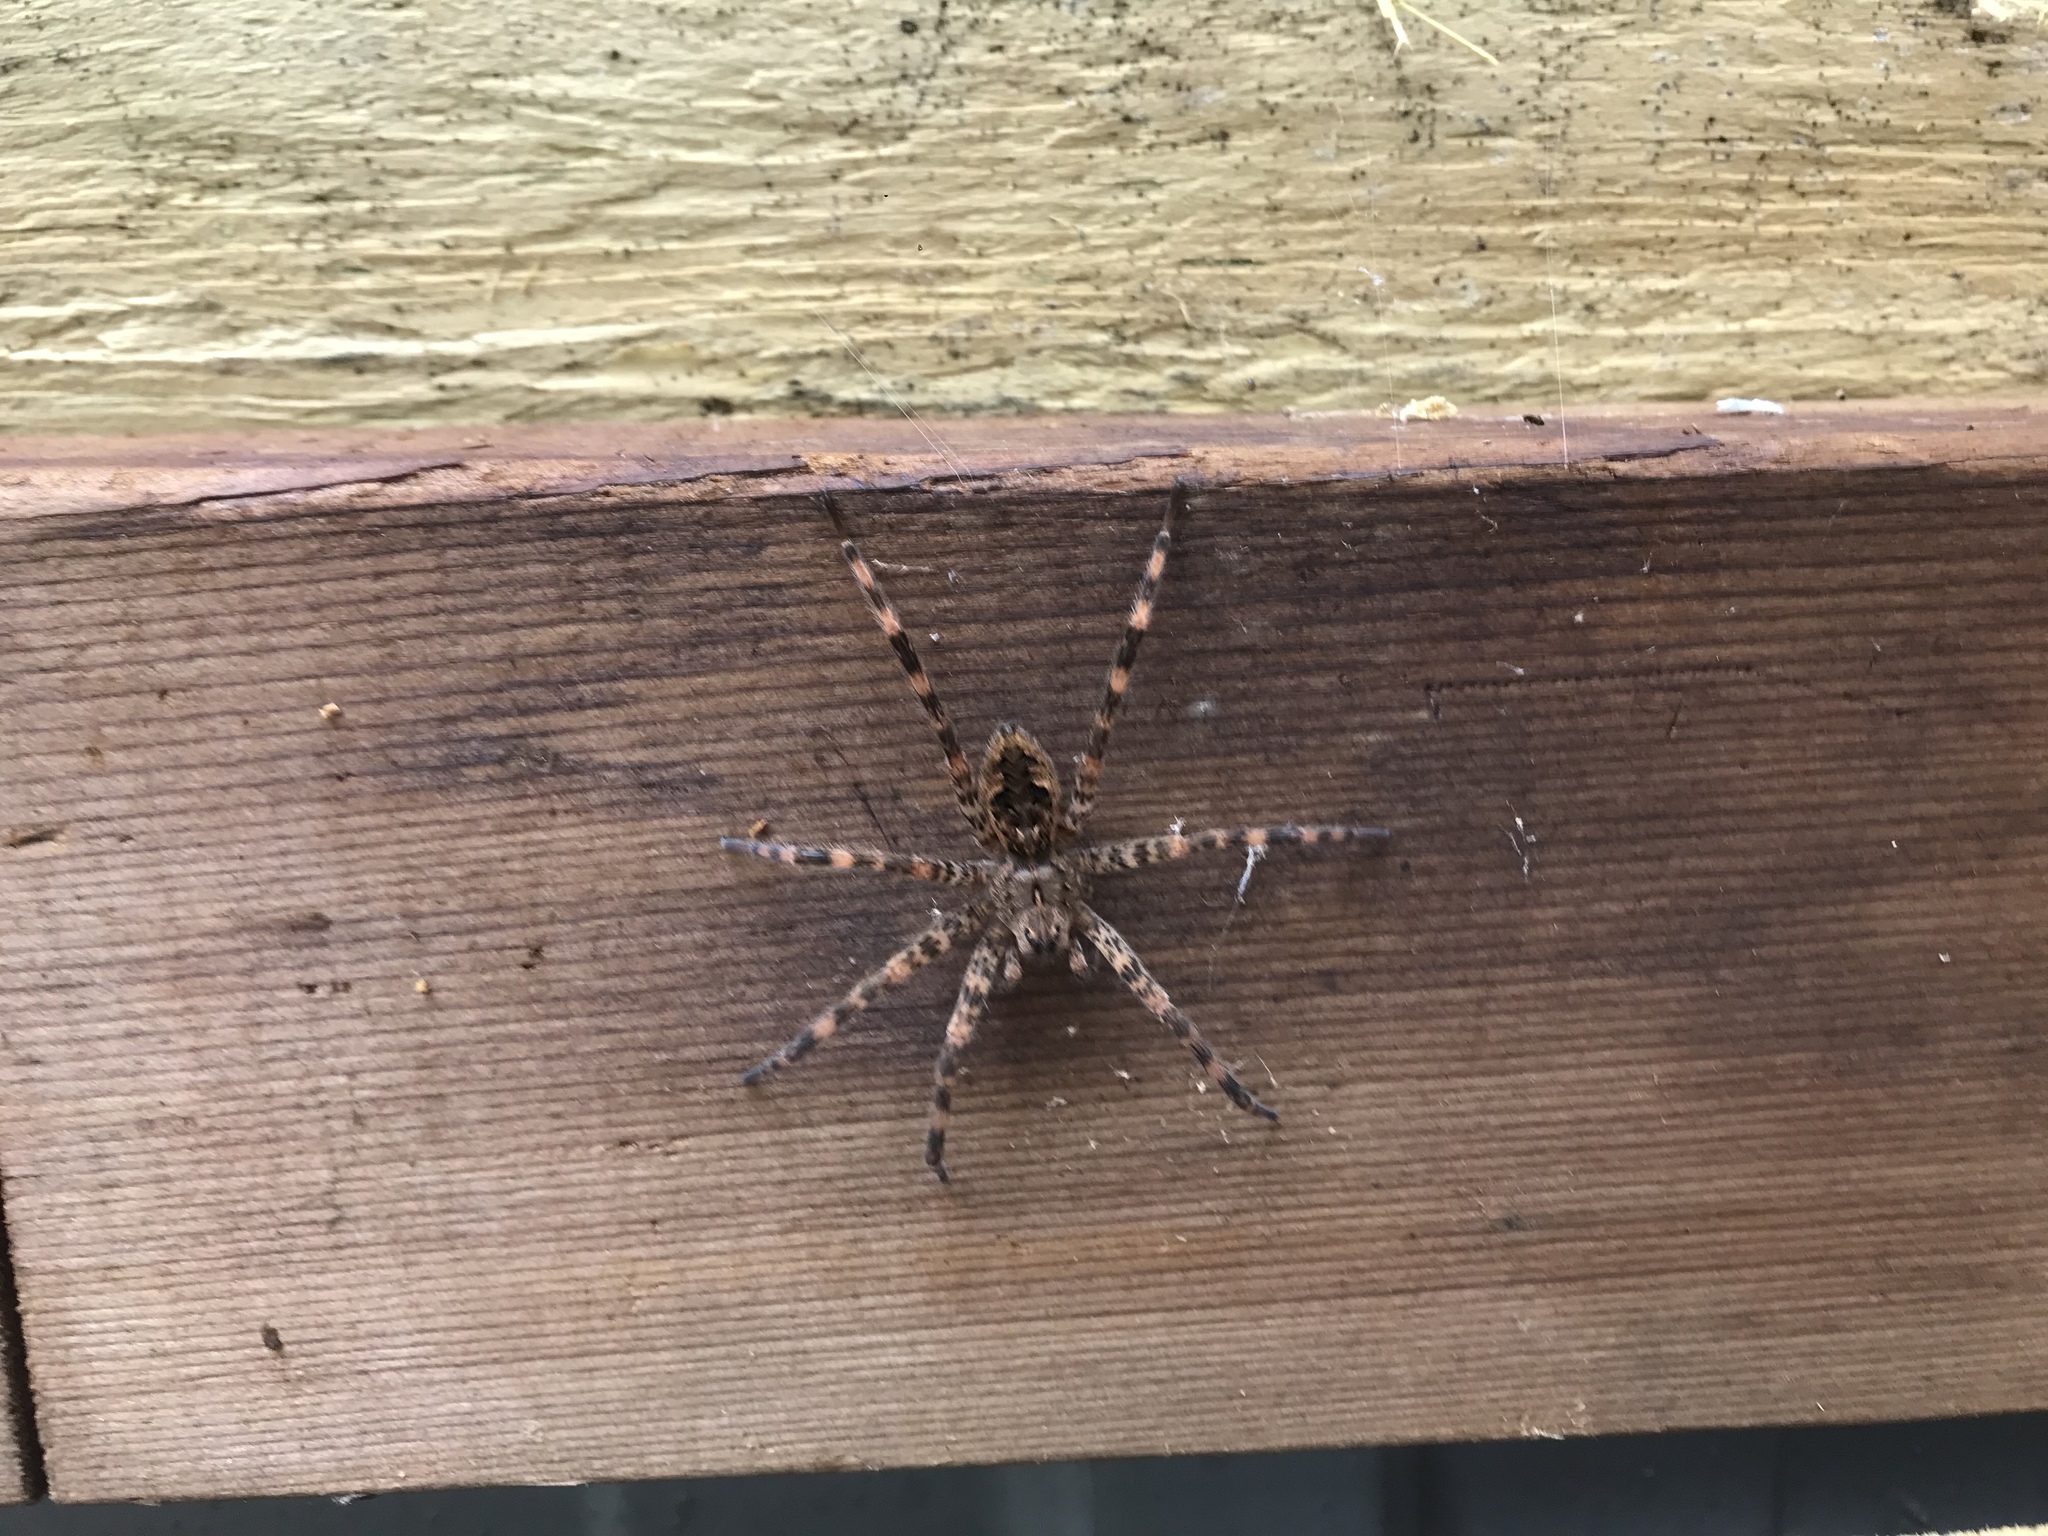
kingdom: Animalia
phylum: Arthropoda
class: Arachnida
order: Araneae
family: Pisauridae
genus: Dolomedes
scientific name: Dolomedes tenebrosus
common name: Dark fishing spider
